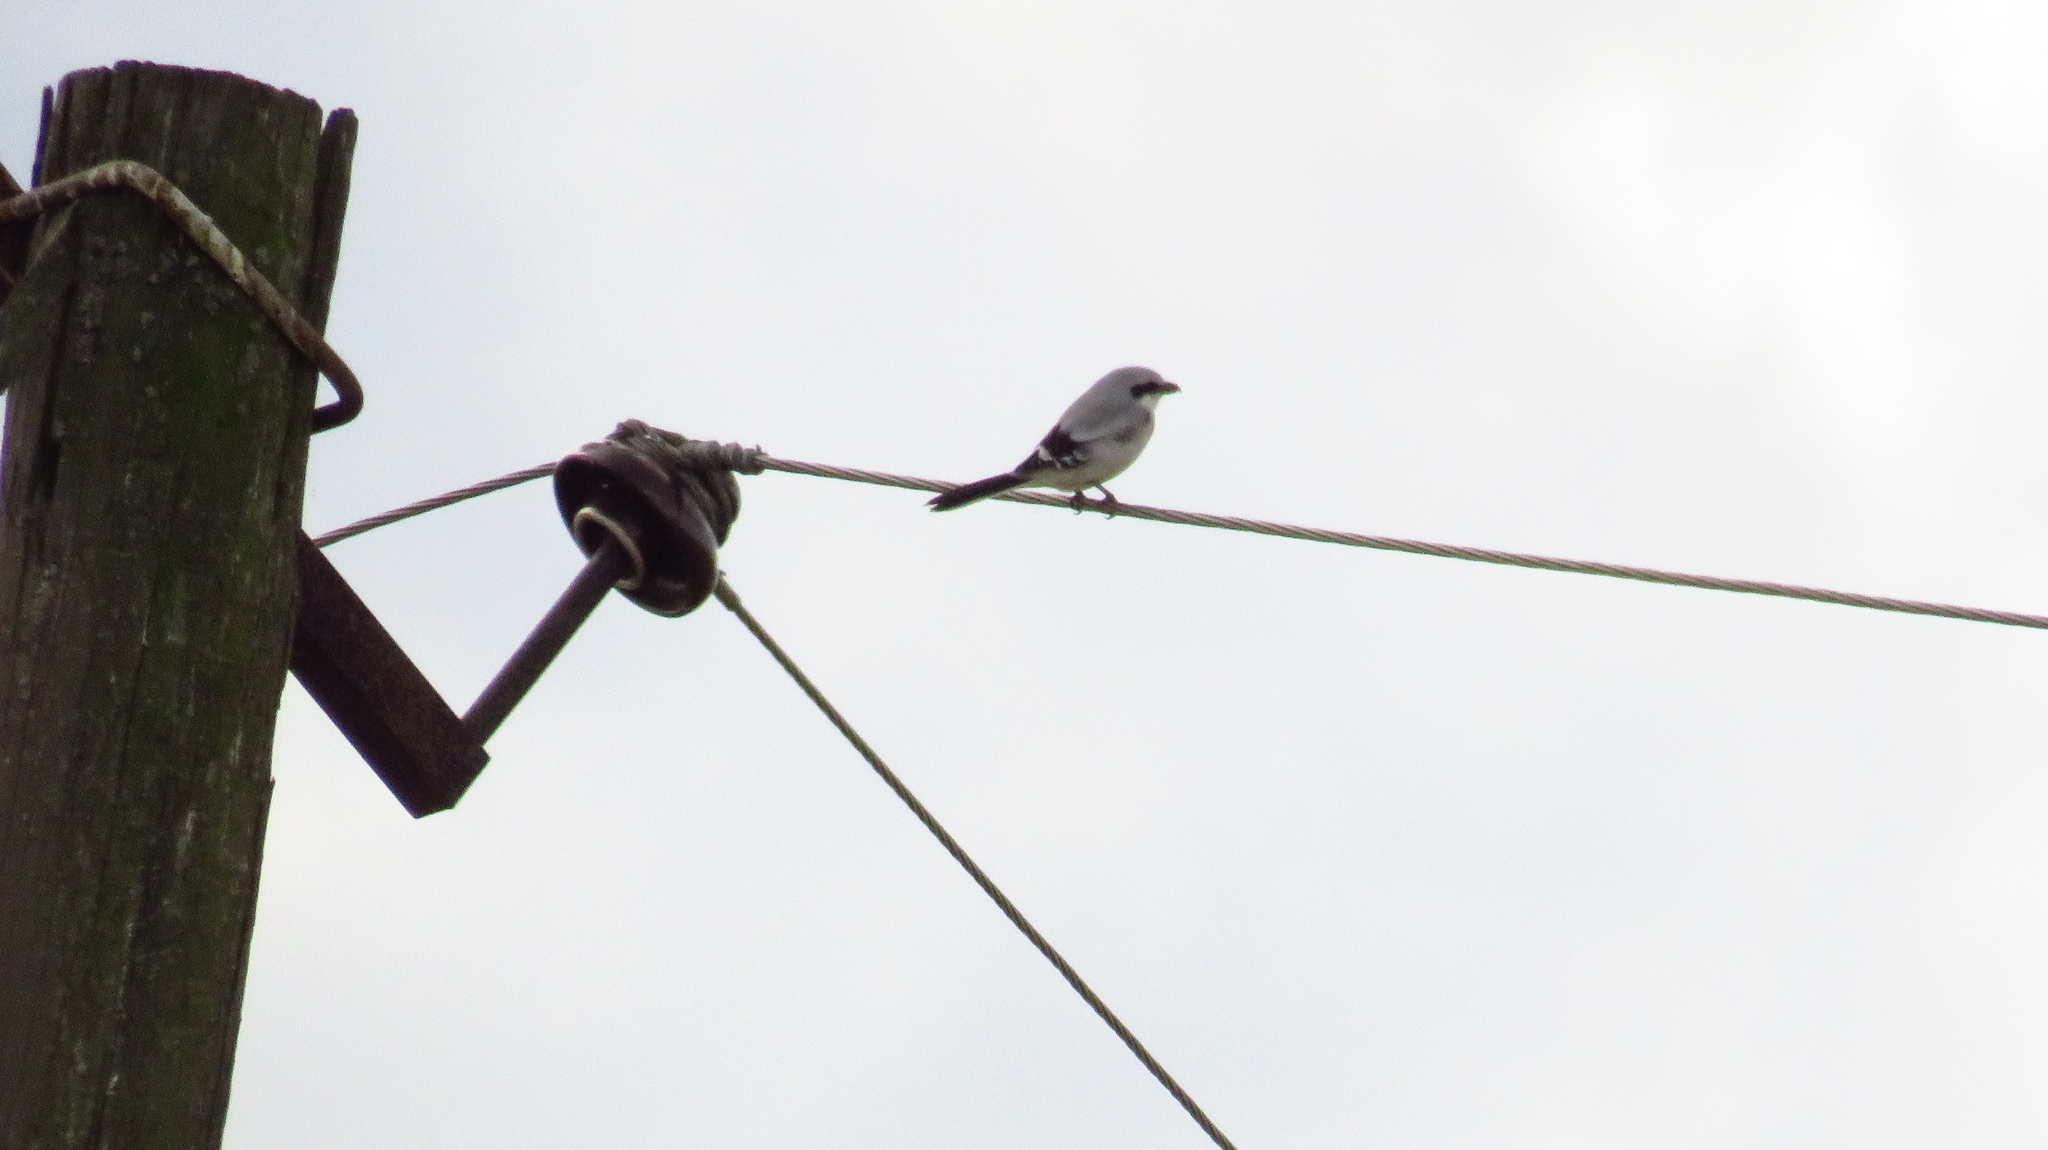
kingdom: Animalia
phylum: Chordata
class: Aves
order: Passeriformes
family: Laniidae
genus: Lanius
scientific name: Lanius excubitor
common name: Great grey shrike
